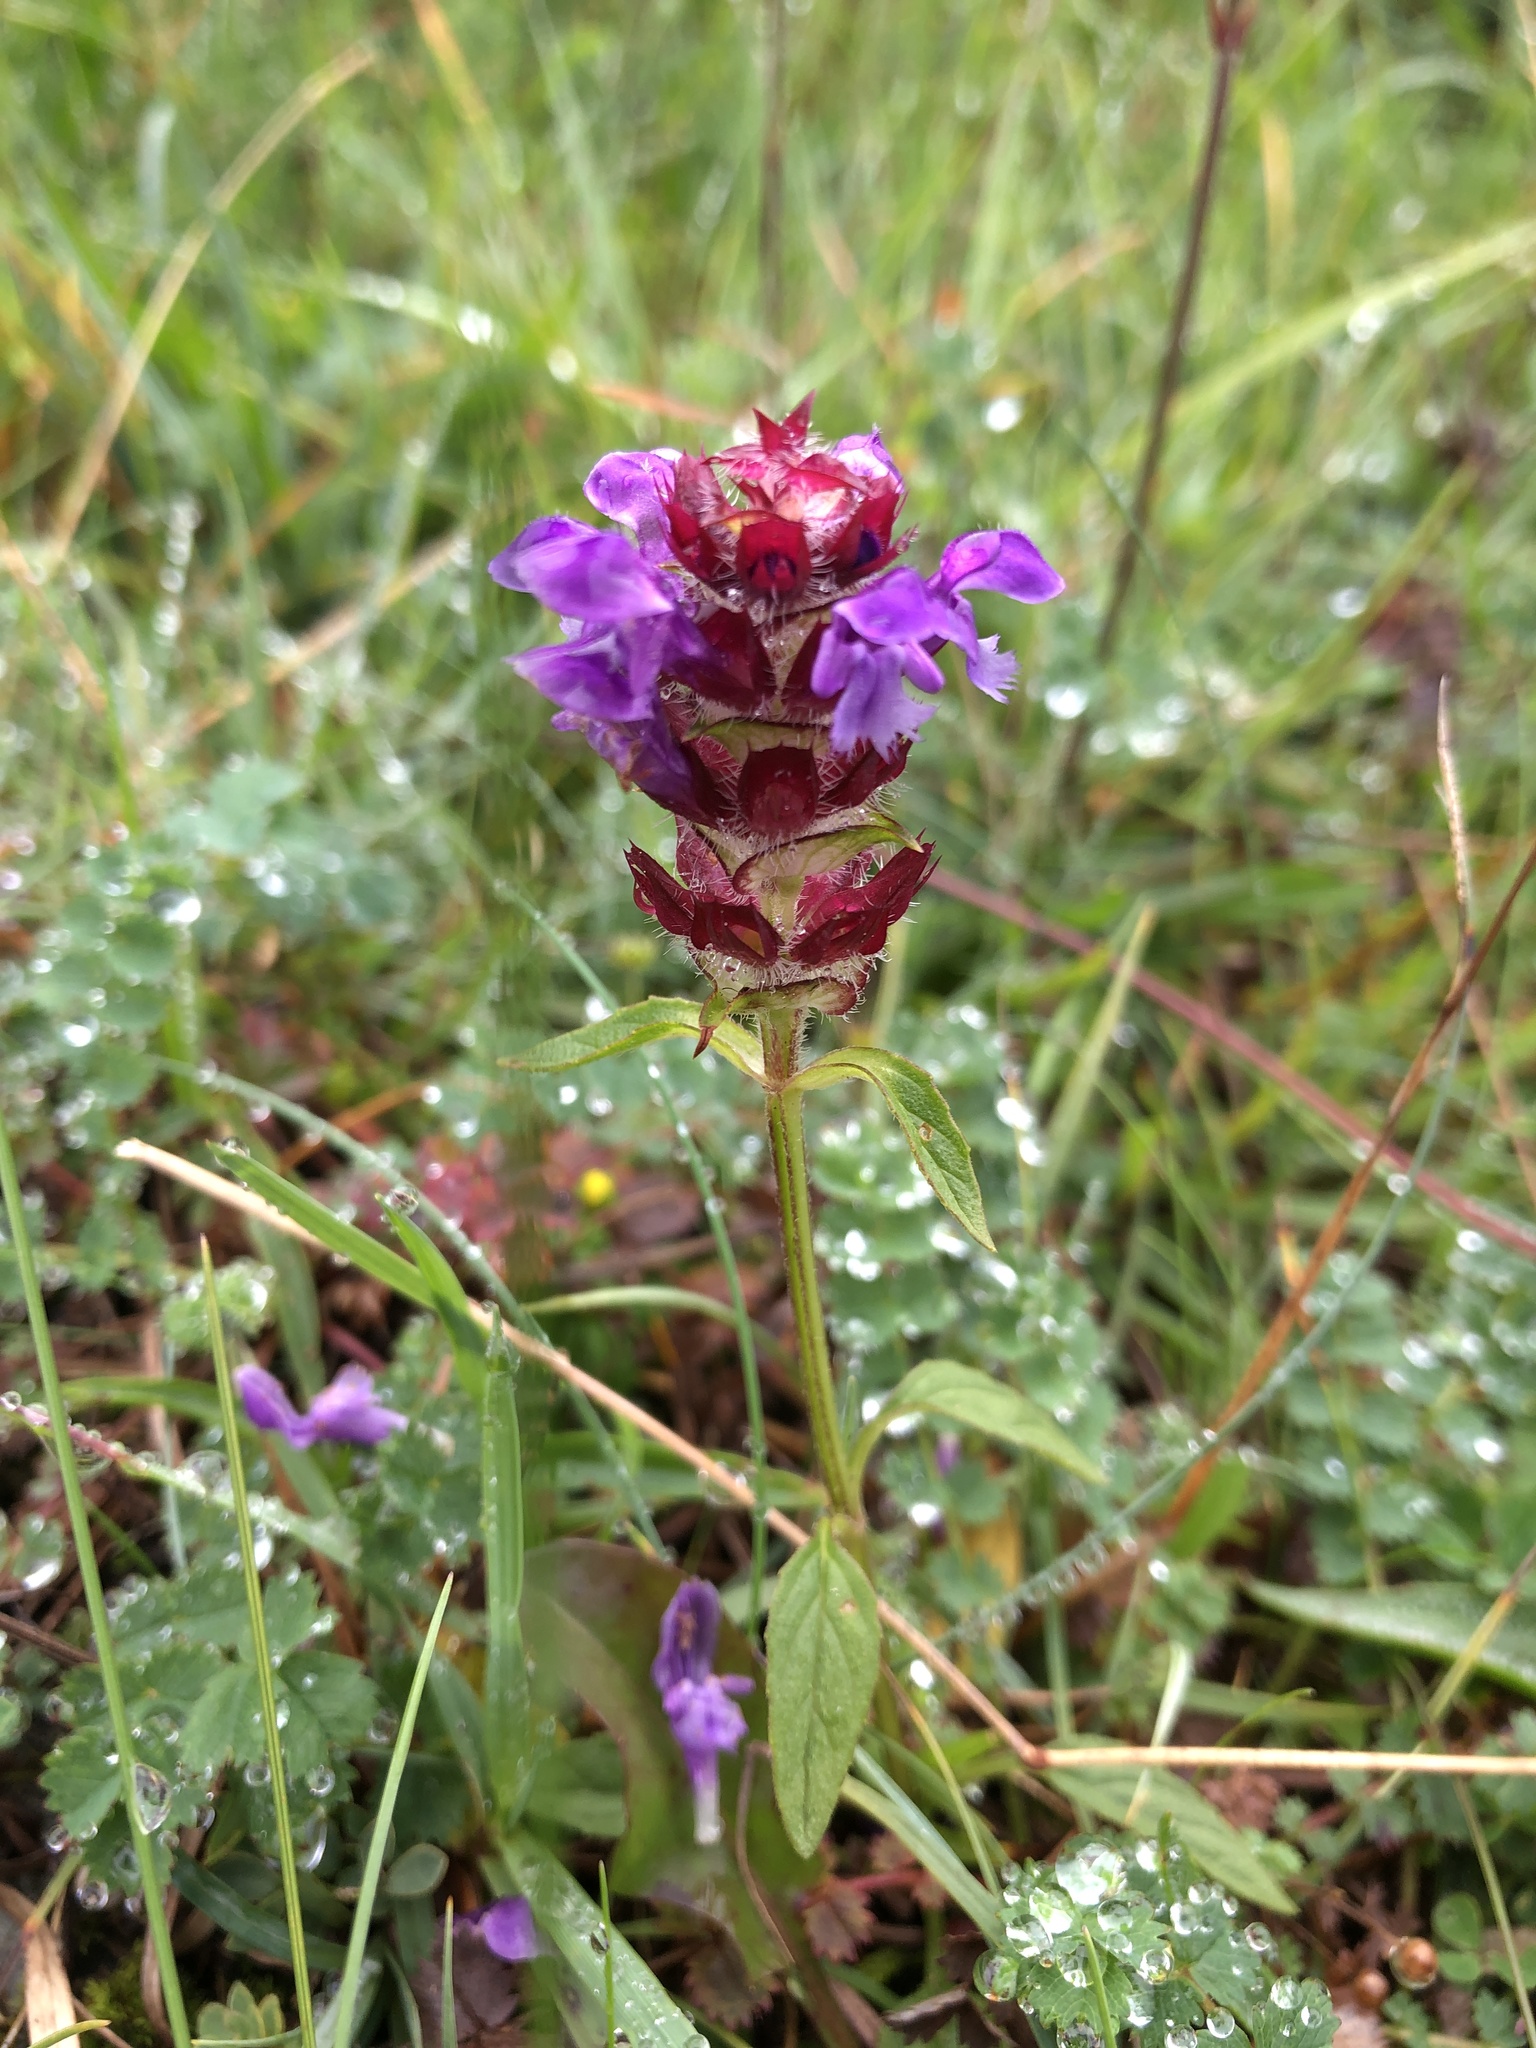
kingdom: Plantae
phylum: Tracheophyta
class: Magnoliopsida
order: Lamiales
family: Lamiaceae
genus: Prunella
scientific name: Prunella vulgaris
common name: Heal-all
